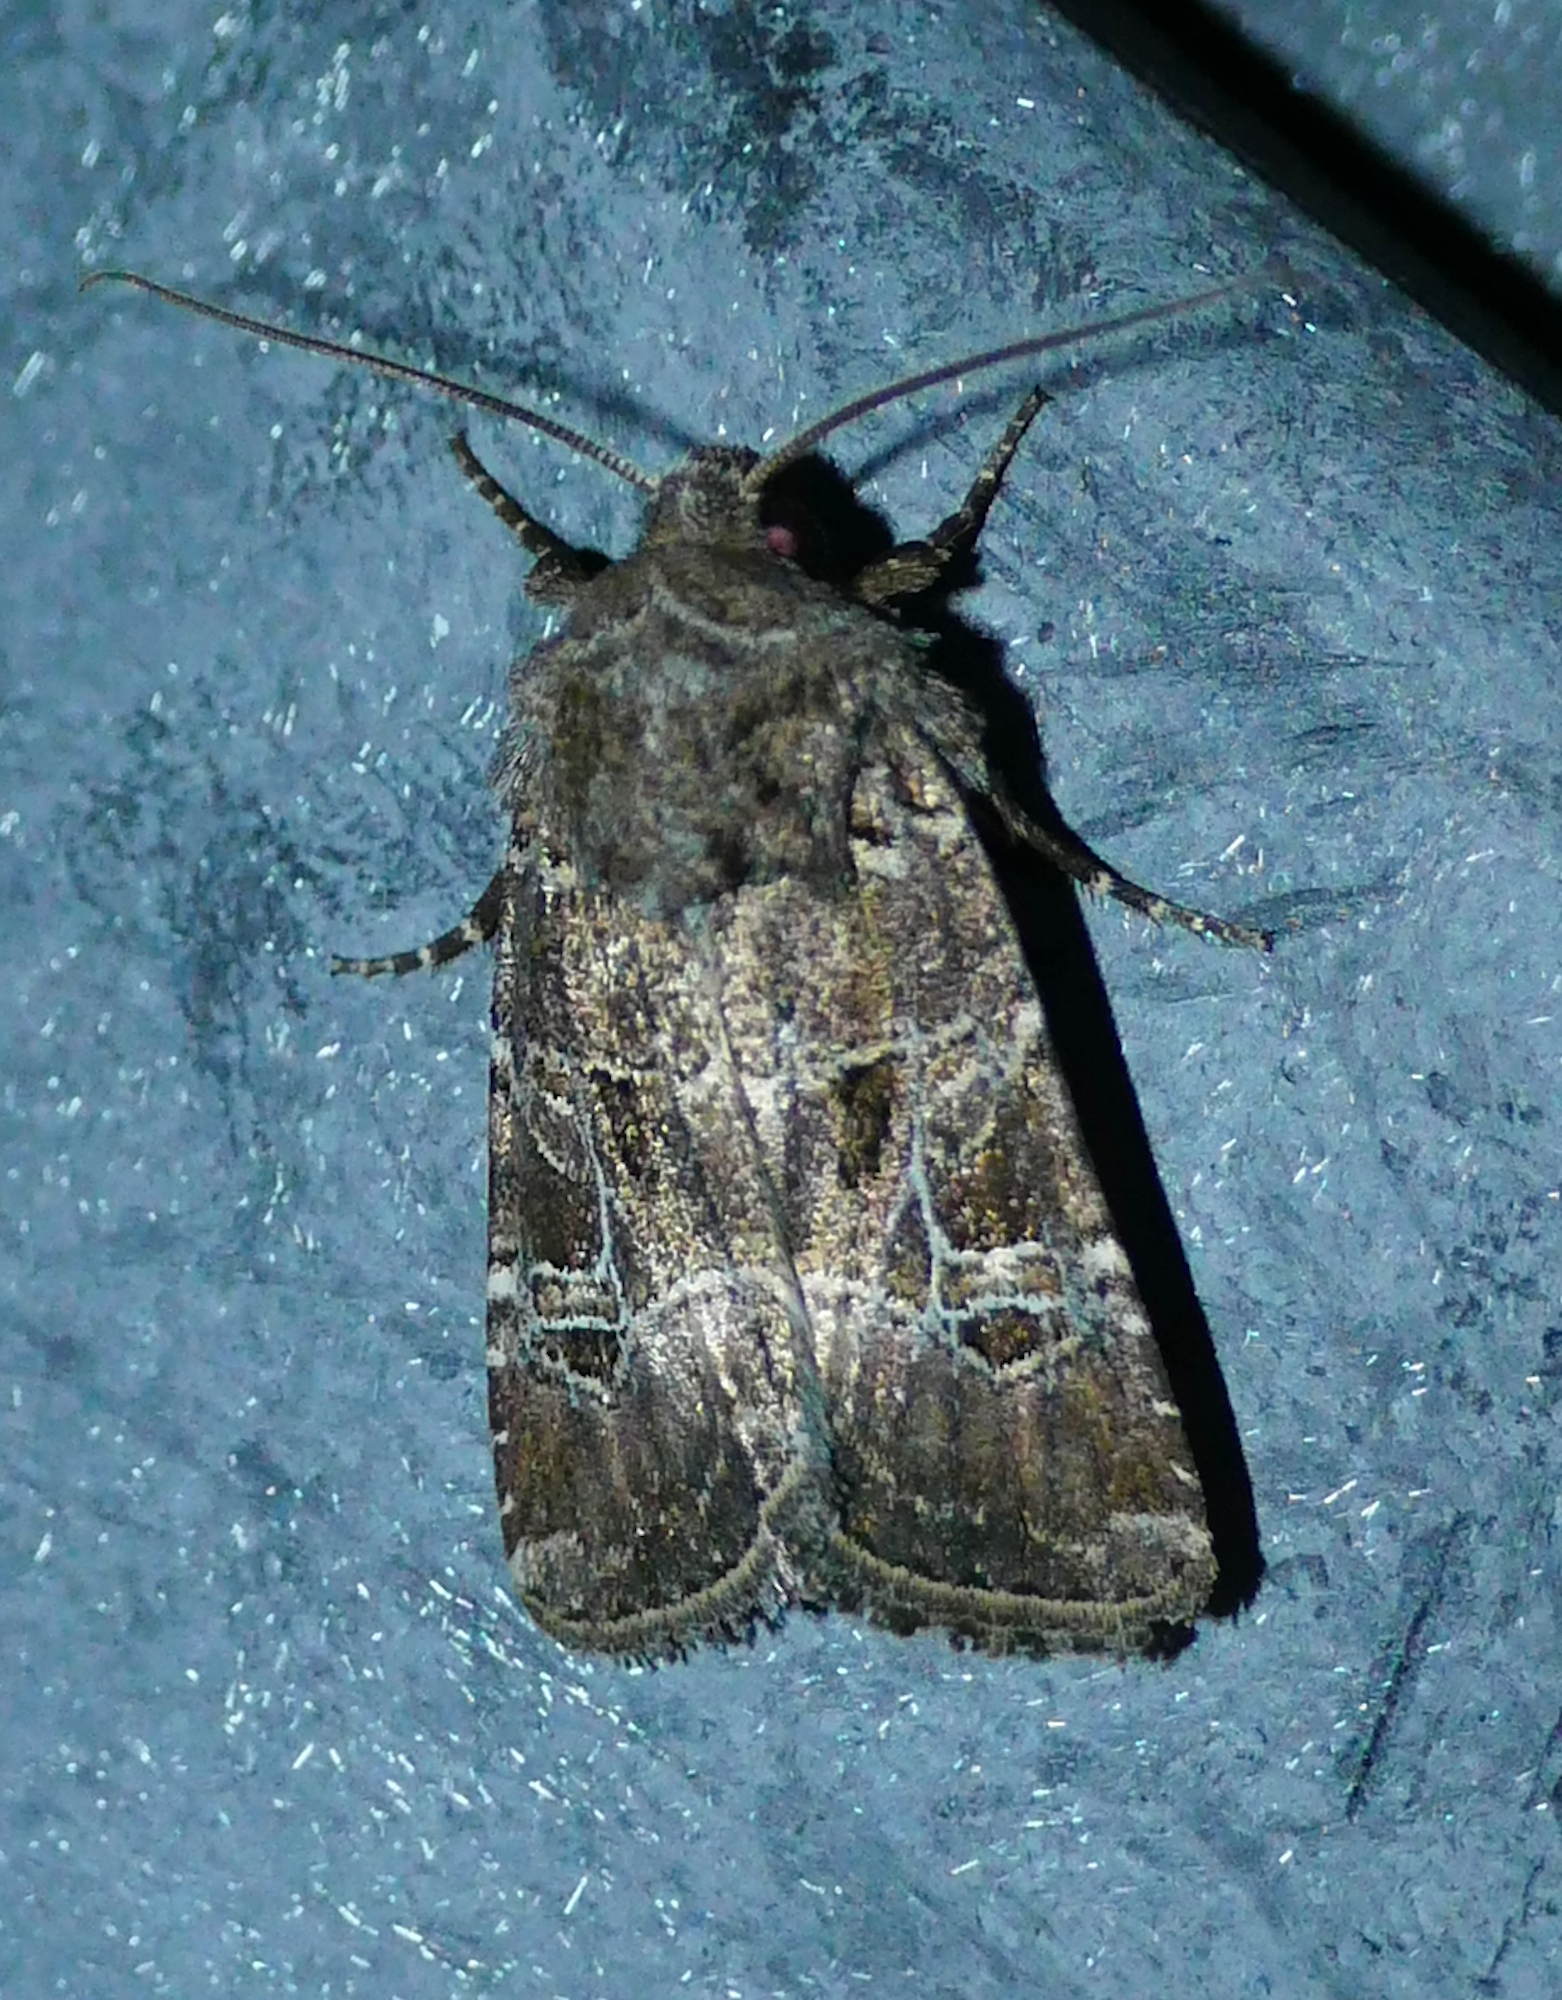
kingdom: Animalia
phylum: Arthropoda
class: Insecta
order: Lepidoptera
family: Noctuidae
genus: Lacinipolia
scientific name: Lacinipolia spiculosa
